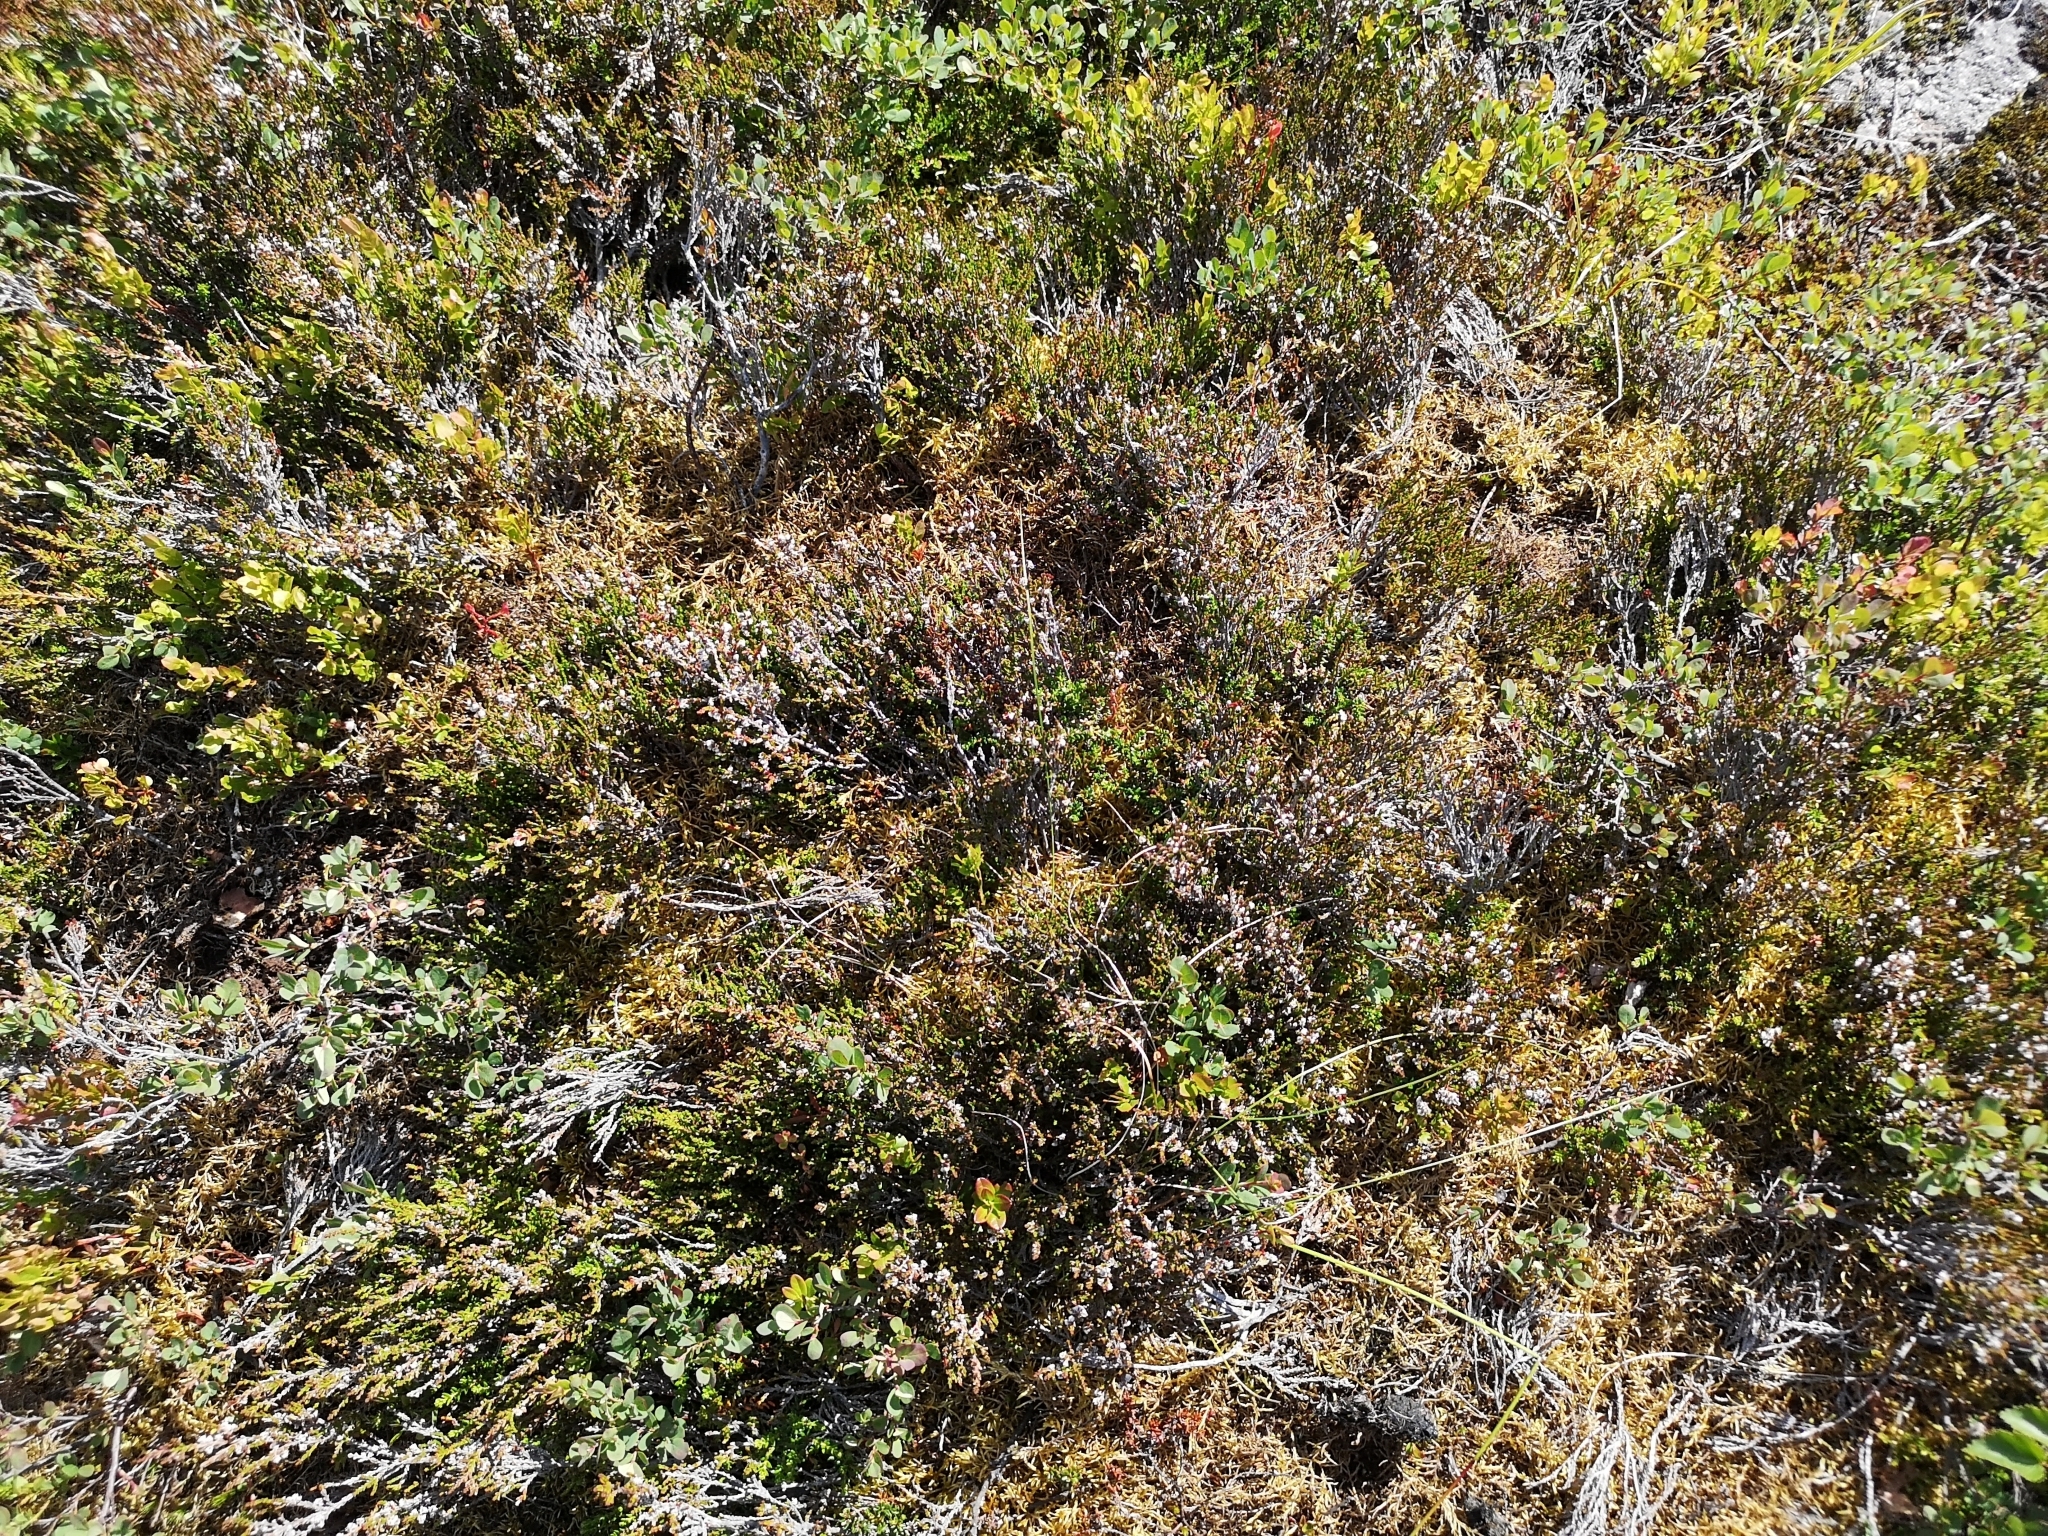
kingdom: Plantae
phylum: Tracheophyta
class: Magnoliopsida
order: Ericales
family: Ericaceae
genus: Calluna
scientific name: Calluna vulgaris
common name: Heather
